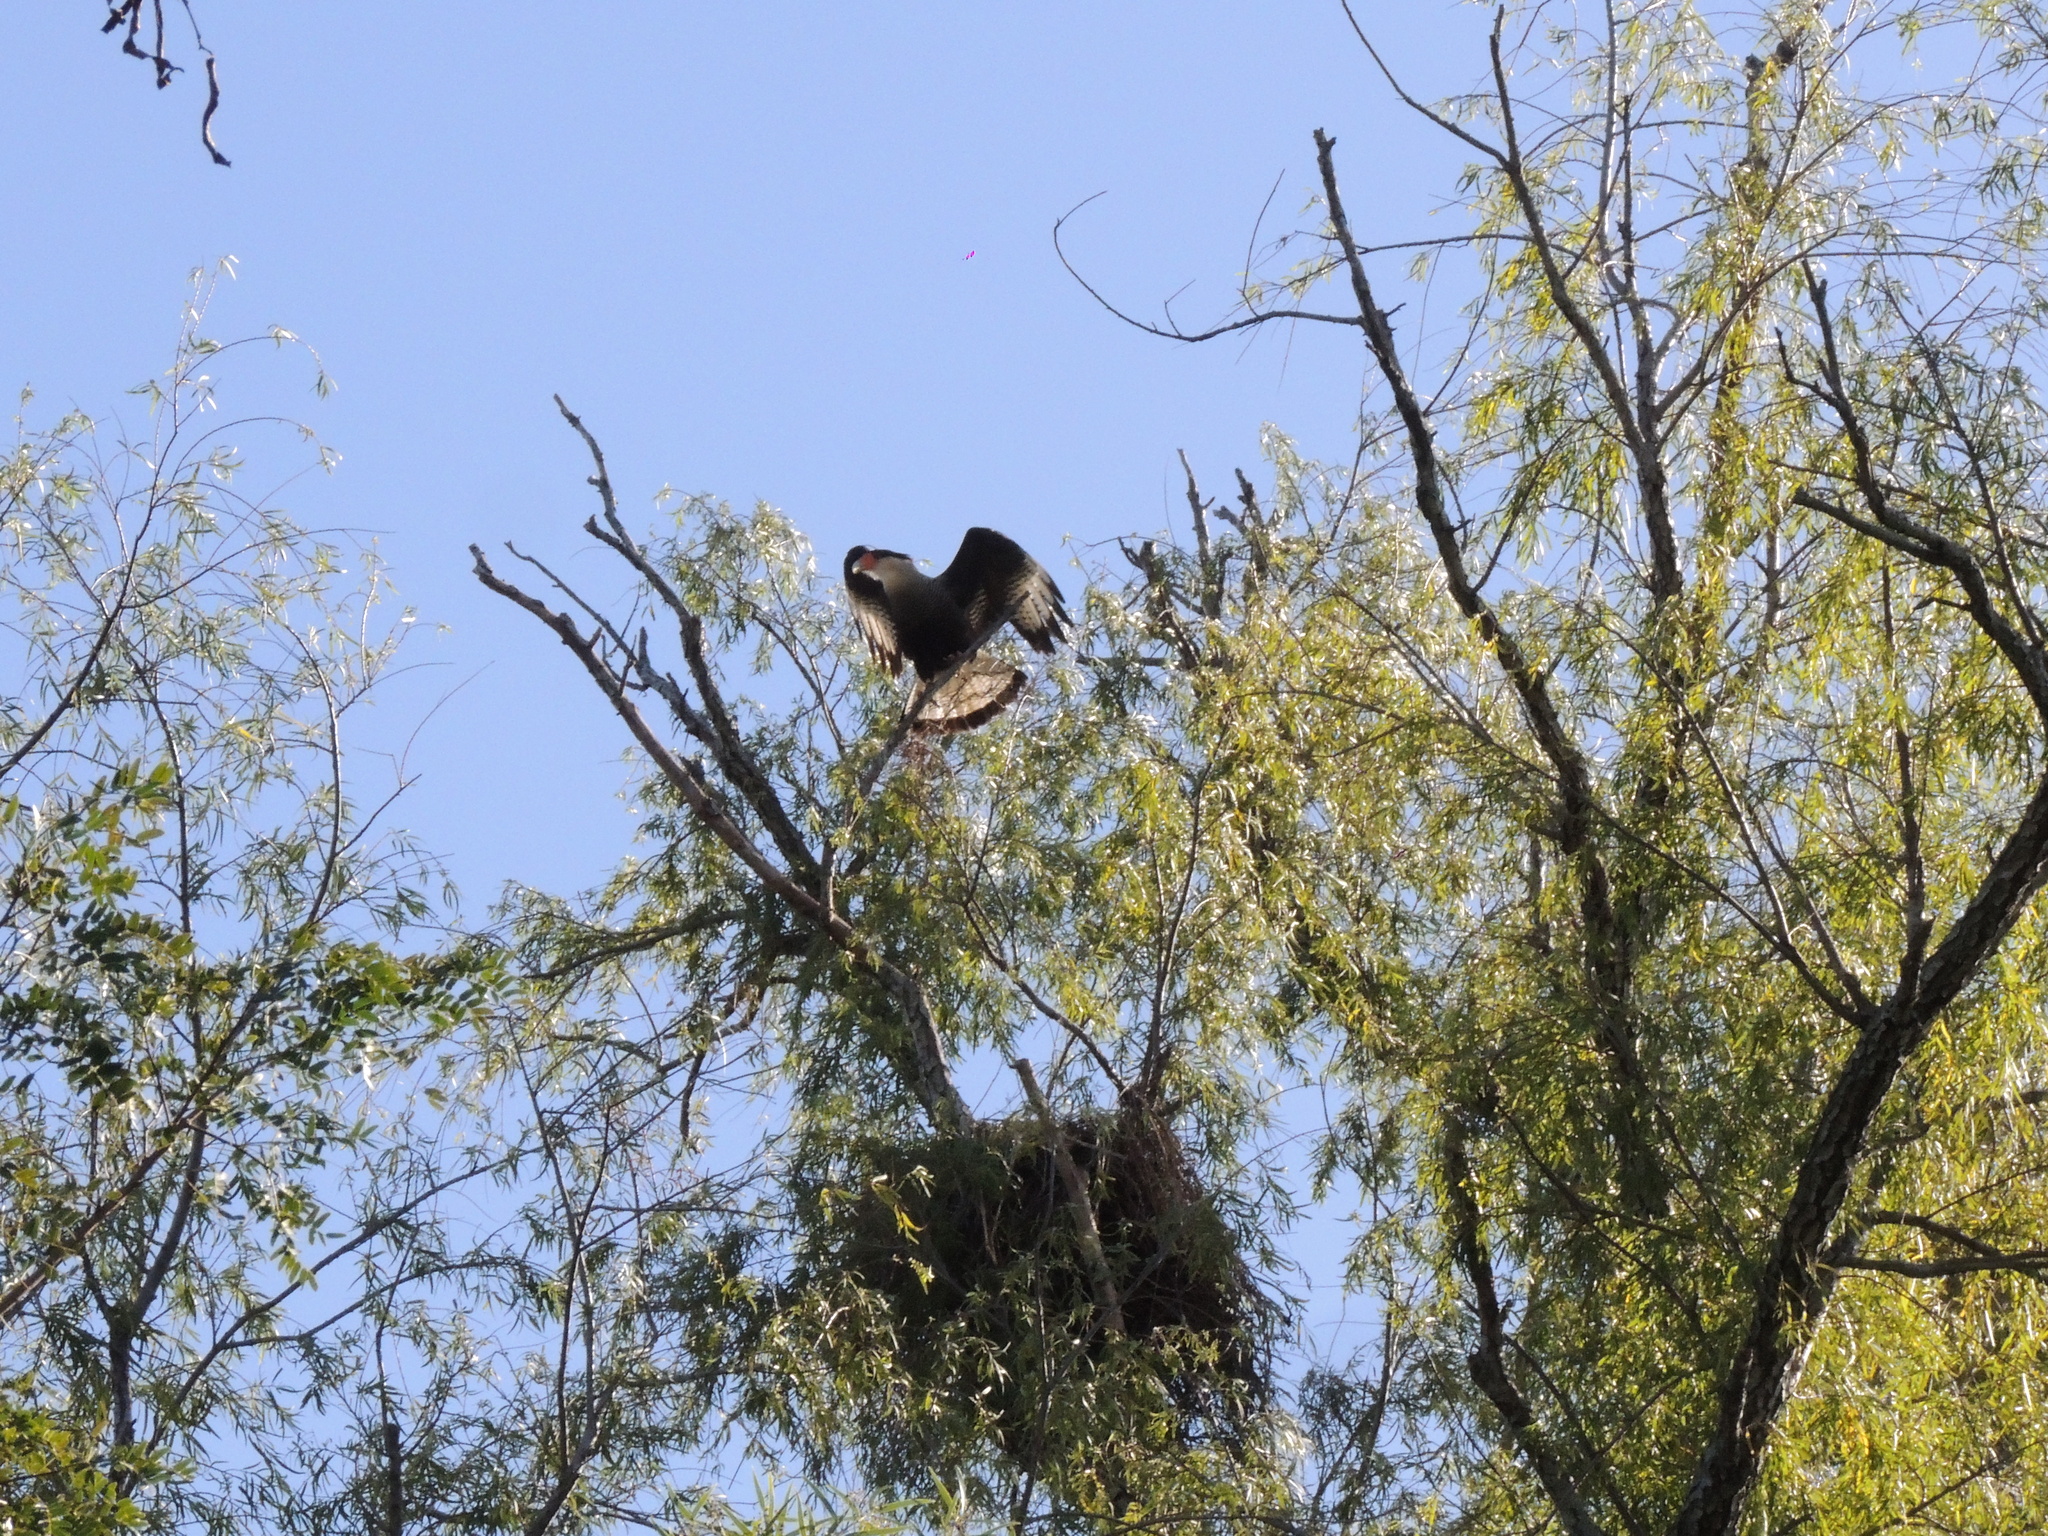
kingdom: Animalia
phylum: Chordata
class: Aves
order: Falconiformes
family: Falconidae
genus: Caracara
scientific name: Caracara plancus
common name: Southern caracara
